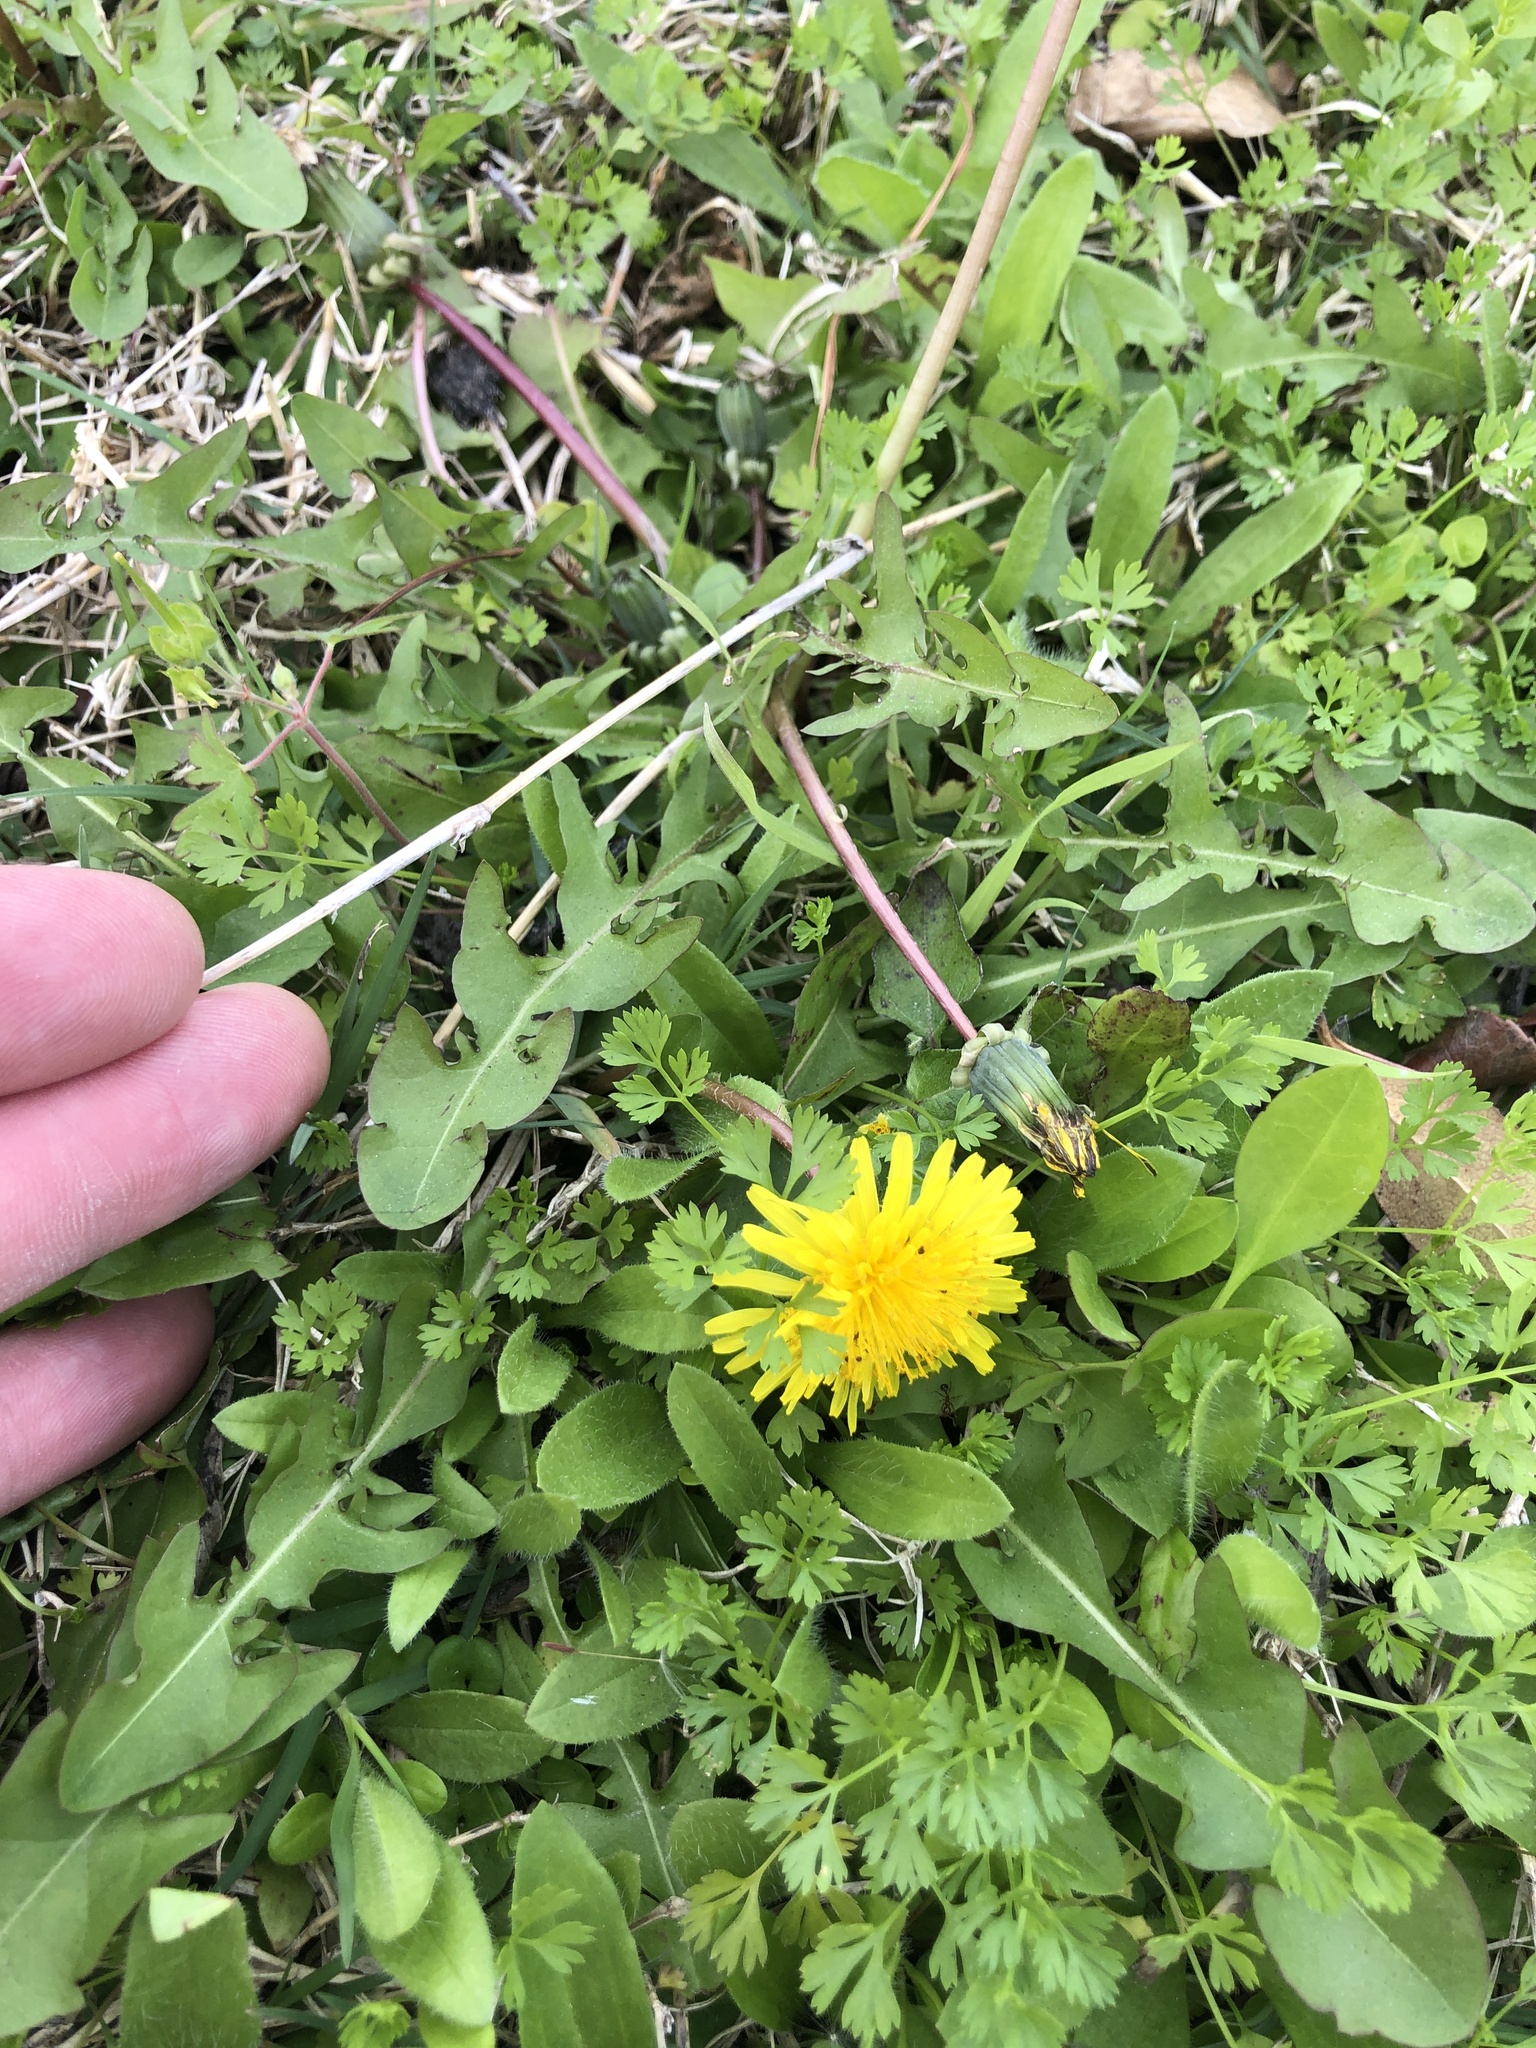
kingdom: Plantae
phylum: Tracheophyta
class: Magnoliopsida
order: Asterales
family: Asteraceae
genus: Taraxacum
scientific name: Taraxacum
